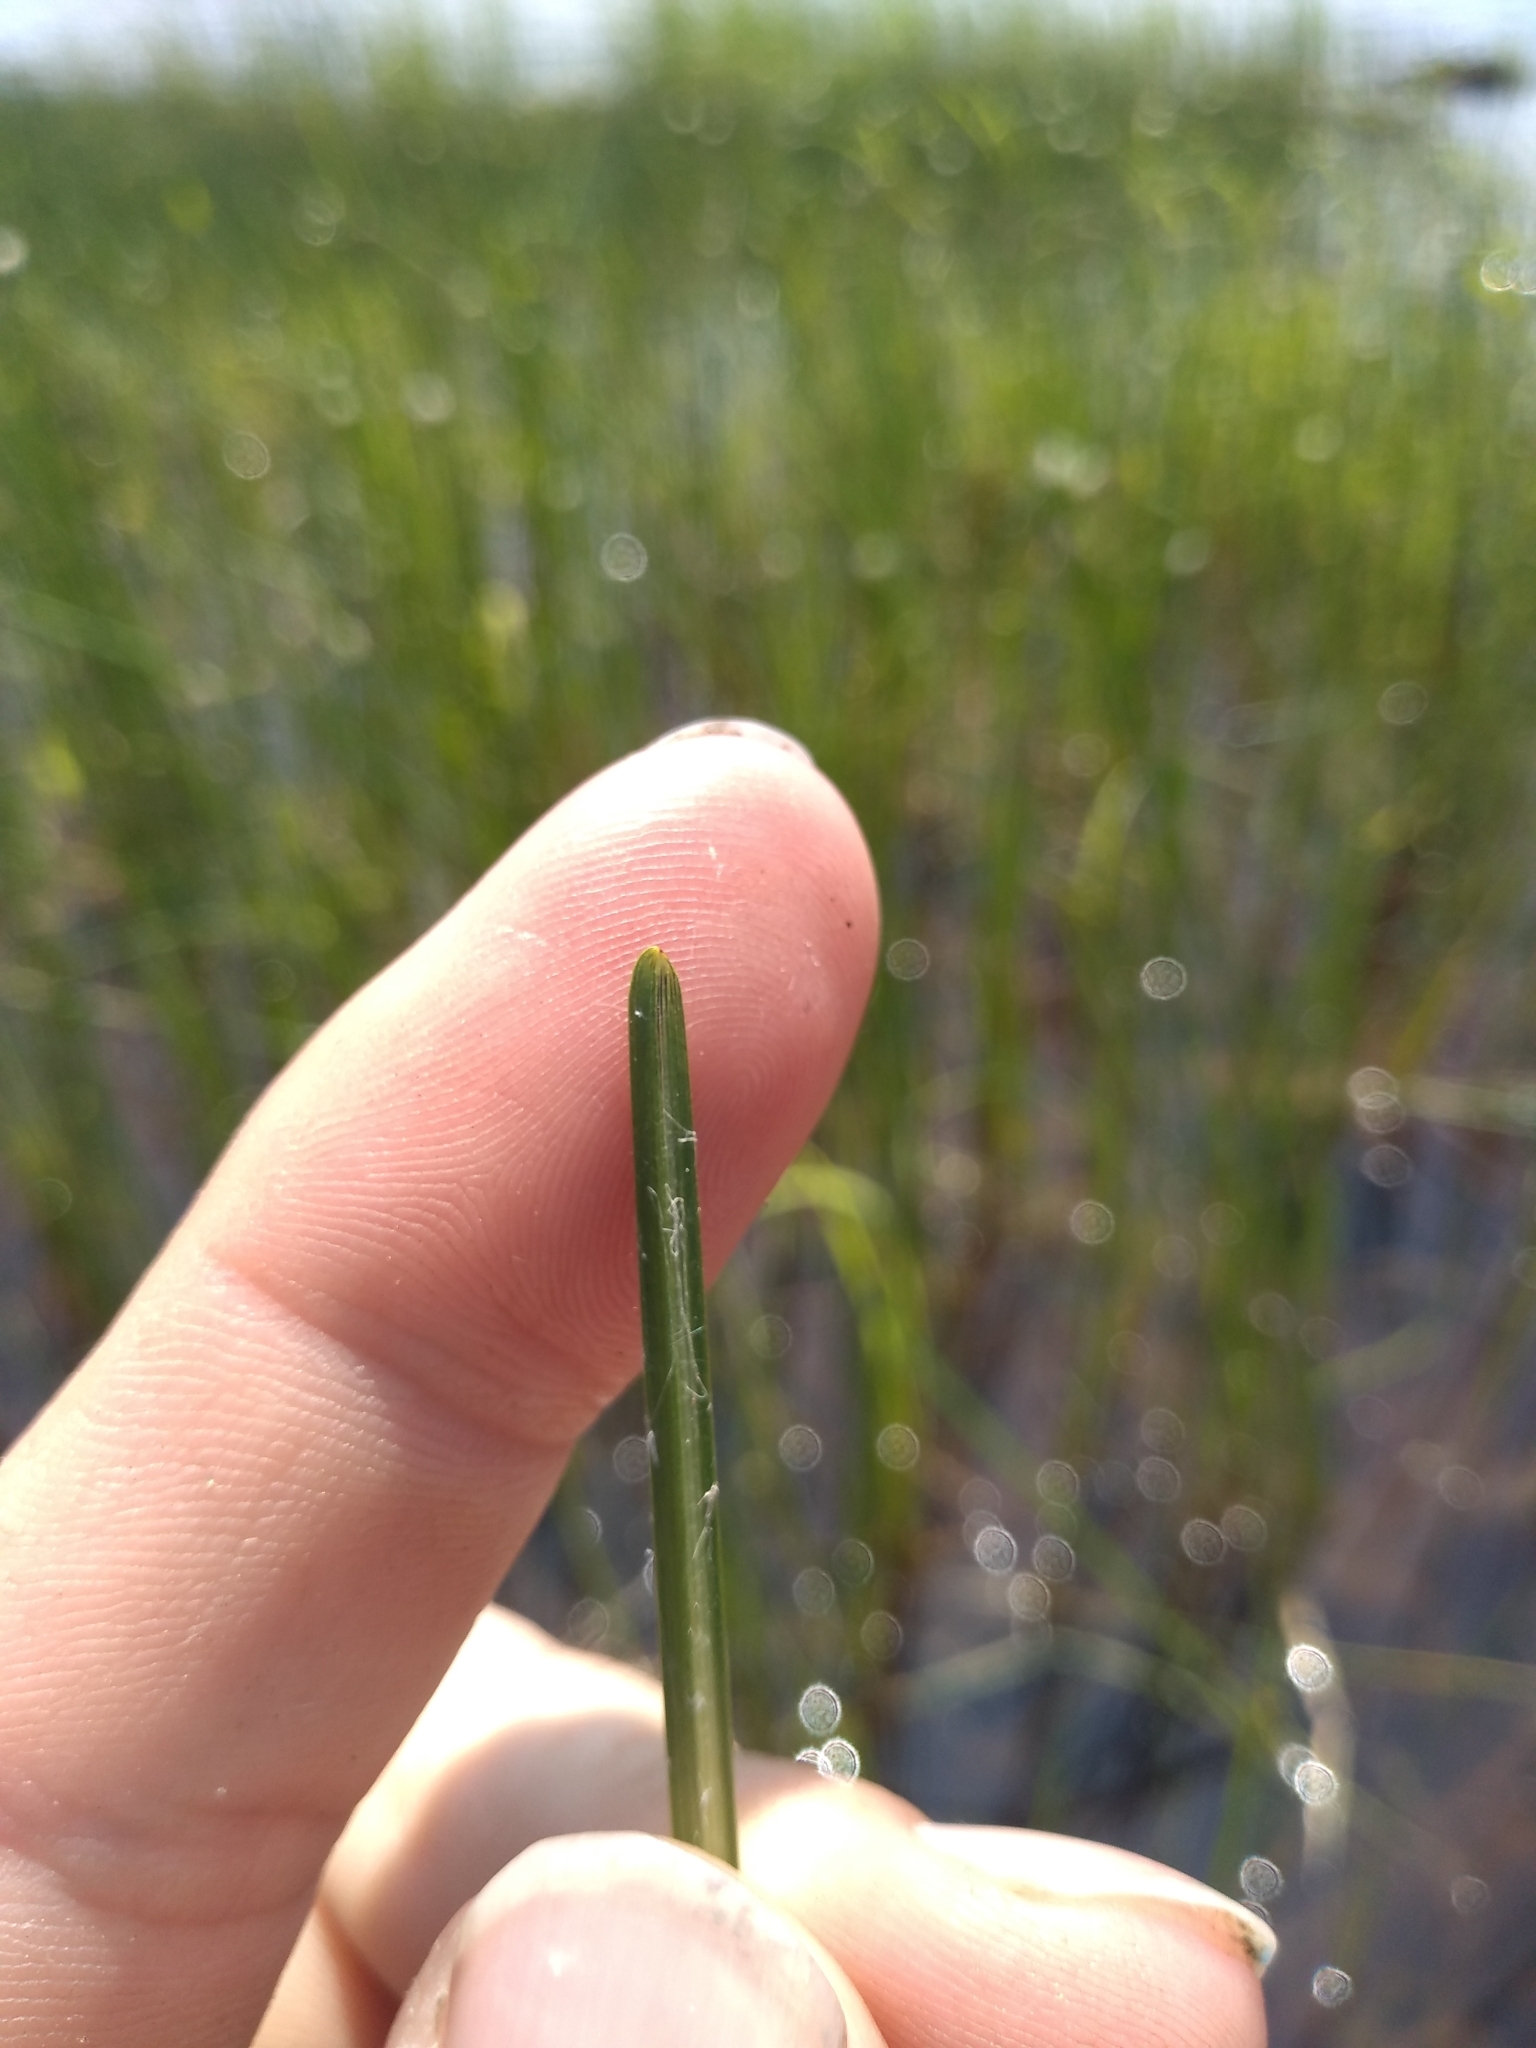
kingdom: Plantae
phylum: Tracheophyta
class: Liliopsida
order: Poales
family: Cyperaceae
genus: Schoenoplectus
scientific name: Schoenoplectus torreyi
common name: Torrey's bulrush
